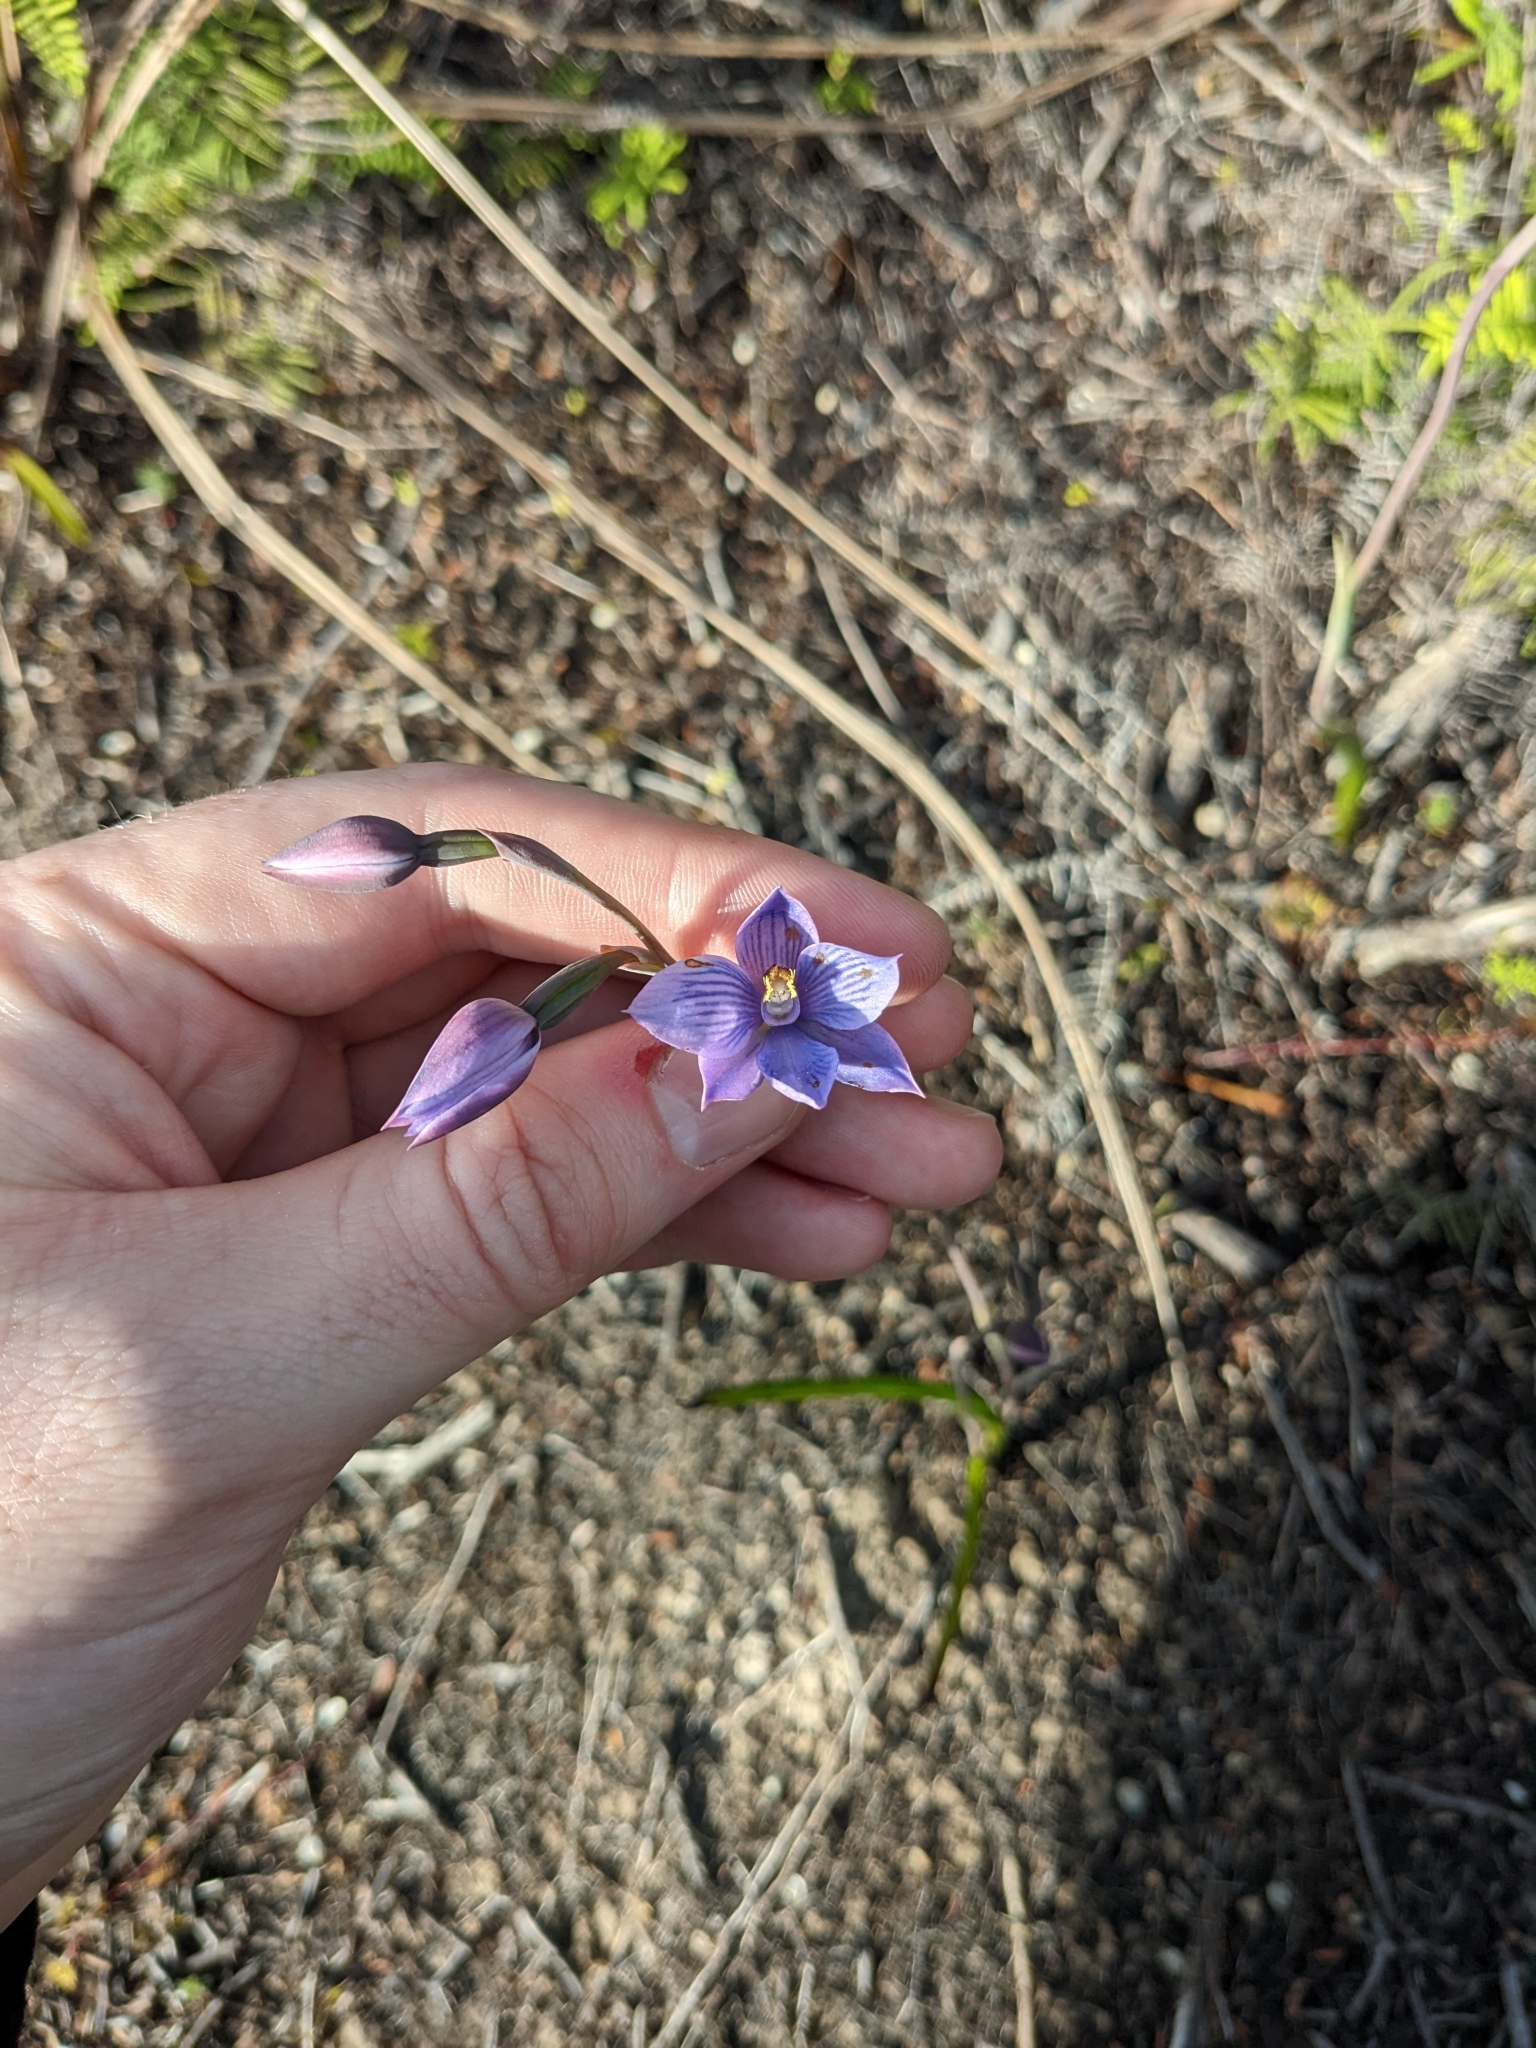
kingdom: Plantae
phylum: Tracheophyta
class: Liliopsida
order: Asparagales
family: Orchidaceae
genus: Thelymitra
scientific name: Thelymitra pulchella
